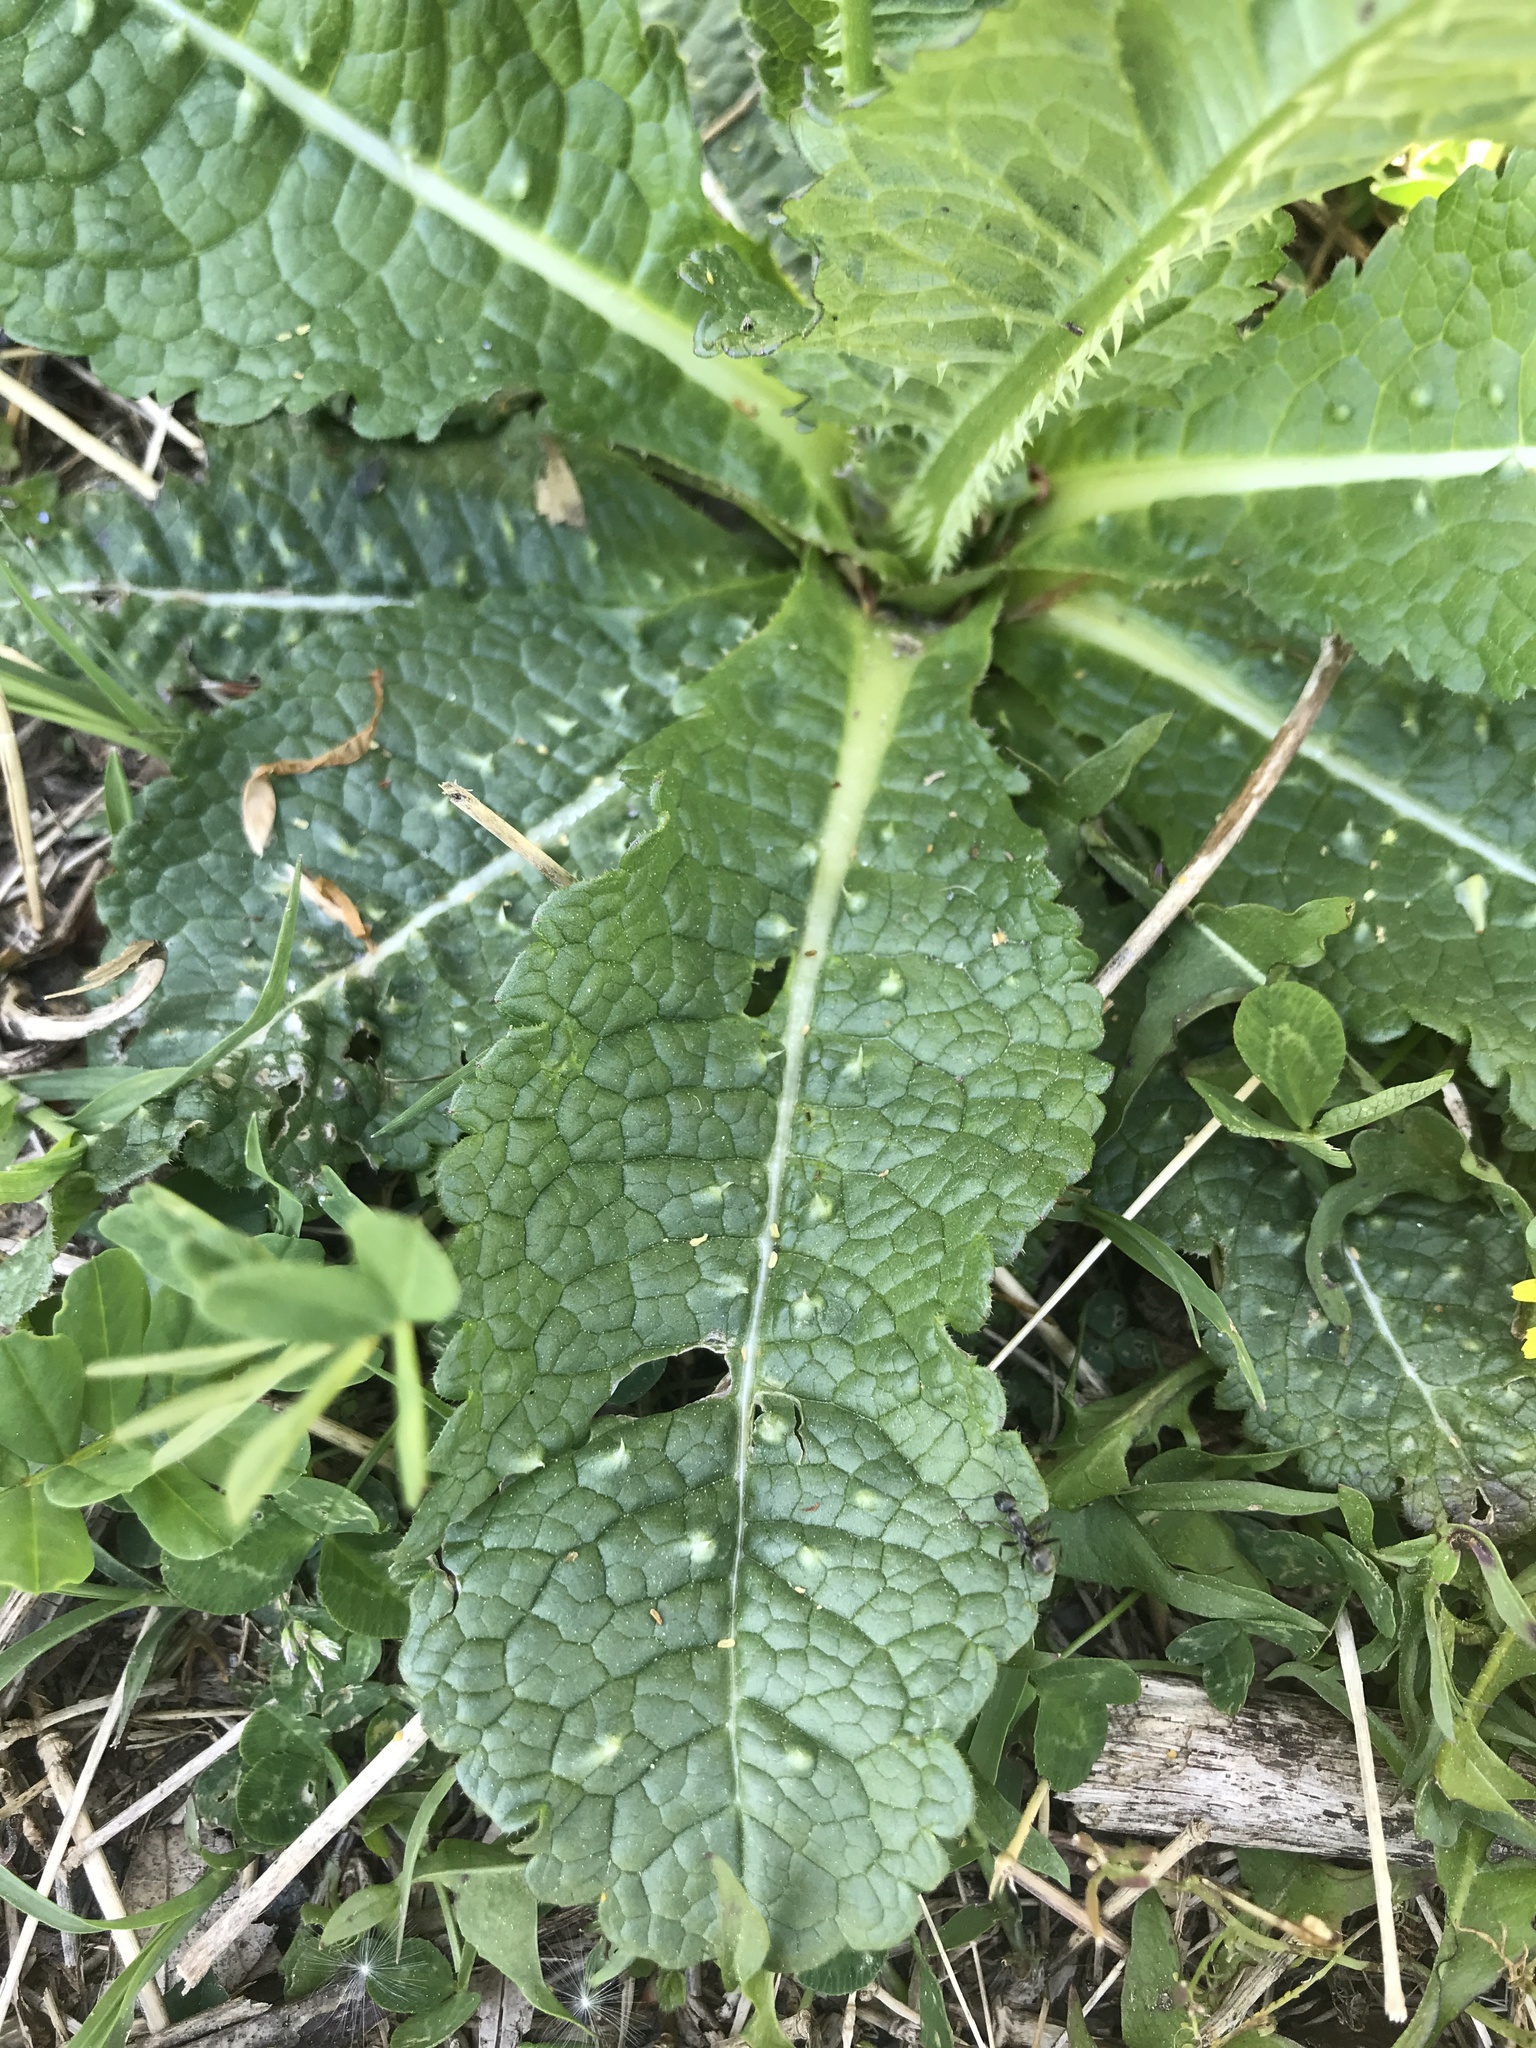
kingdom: Plantae
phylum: Tracheophyta
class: Magnoliopsida
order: Dipsacales
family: Caprifoliaceae
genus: Dipsacus
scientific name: Dipsacus fullonum
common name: Teasel
